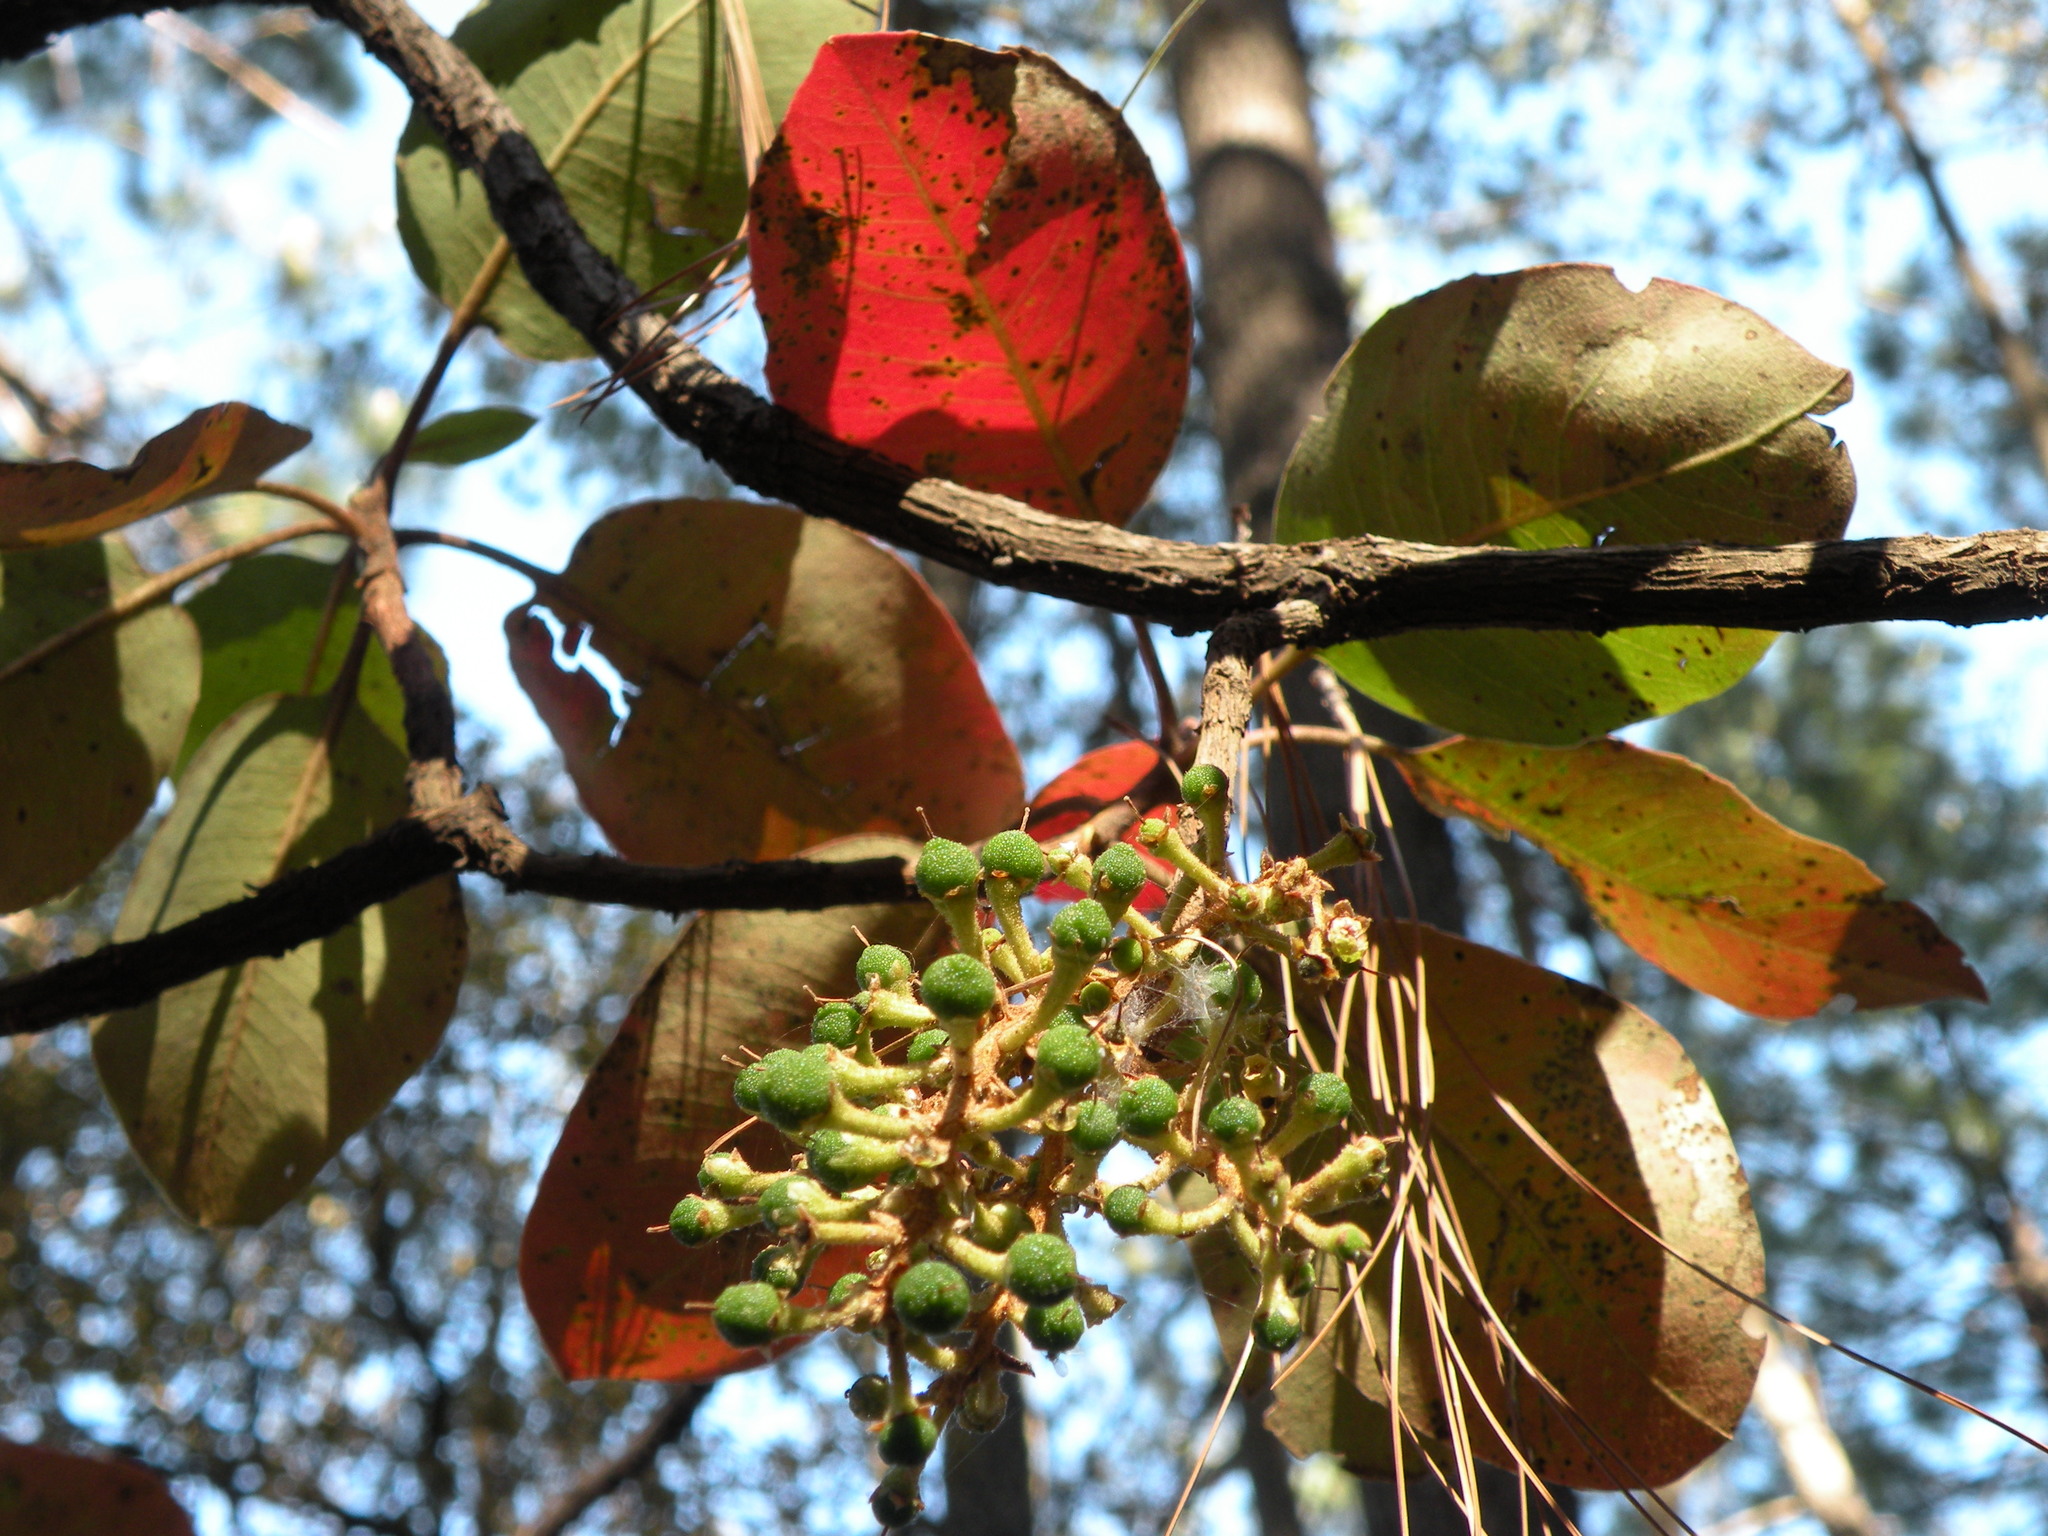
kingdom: Plantae
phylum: Tracheophyta
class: Magnoliopsida
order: Ericales
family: Ericaceae
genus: Arbutus
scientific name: Arbutus madrensis
